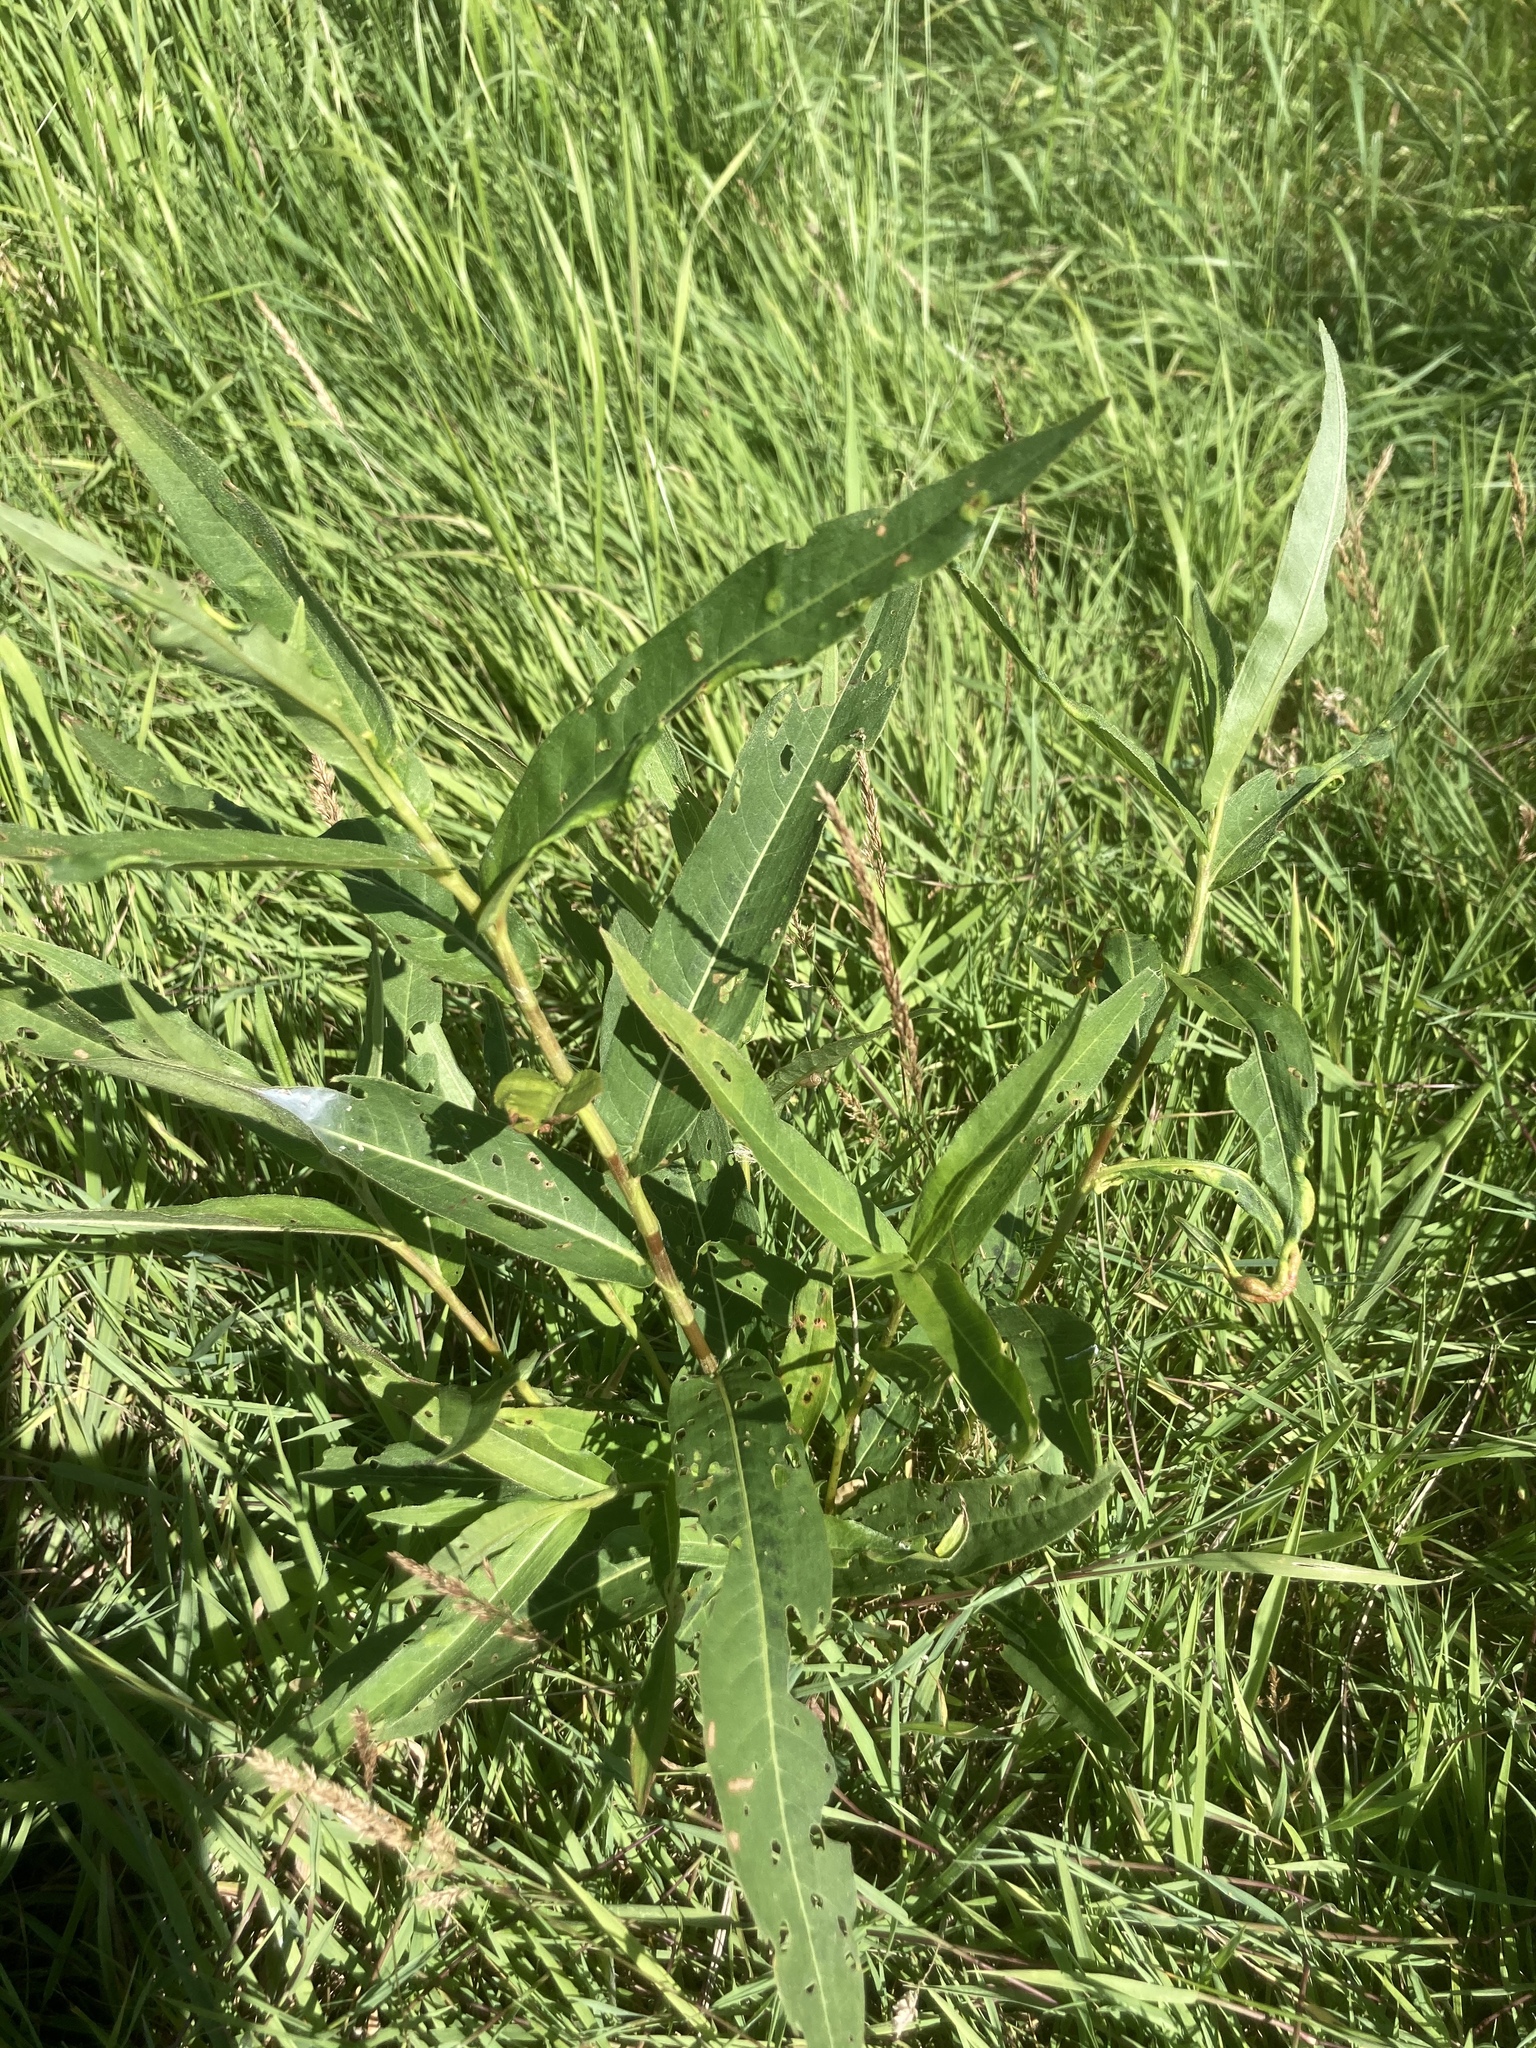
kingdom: Plantae
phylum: Tracheophyta
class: Magnoliopsida
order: Caryophyllales
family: Polygonaceae
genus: Persicaria
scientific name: Persicaria amphibia
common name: Amphibious bistort
